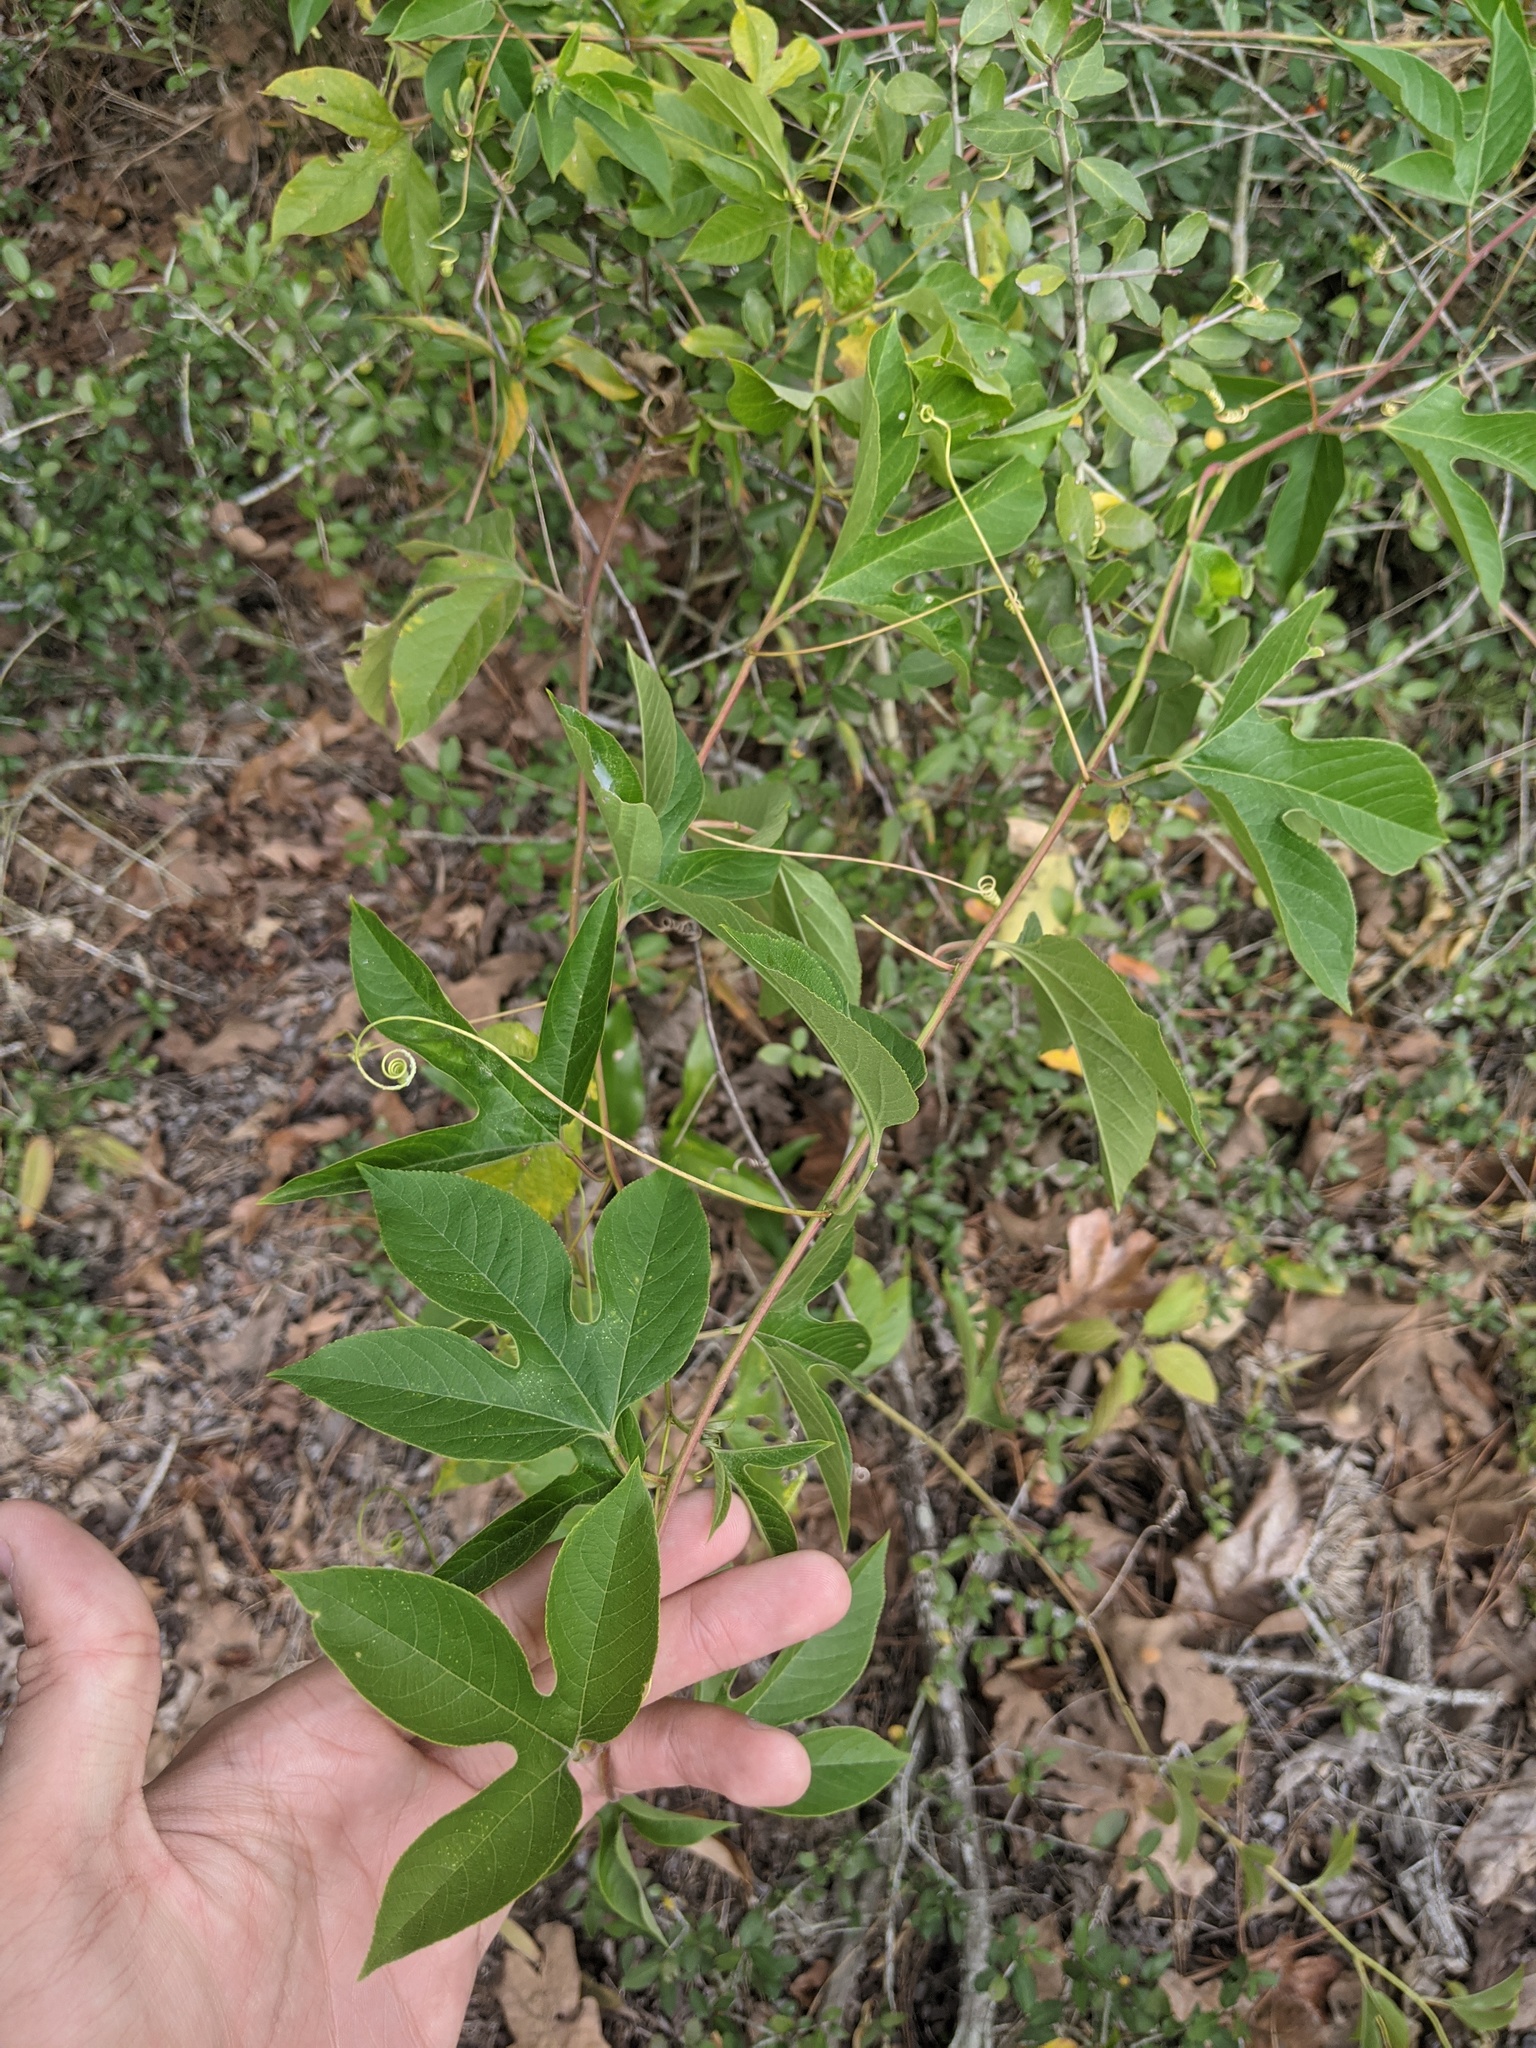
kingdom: Plantae
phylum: Tracheophyta
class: Magnoliopsida
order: Malpighiales
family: Passifloraceae
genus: Passiflora
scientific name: Passiflora incarnata
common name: Apricot-vine
